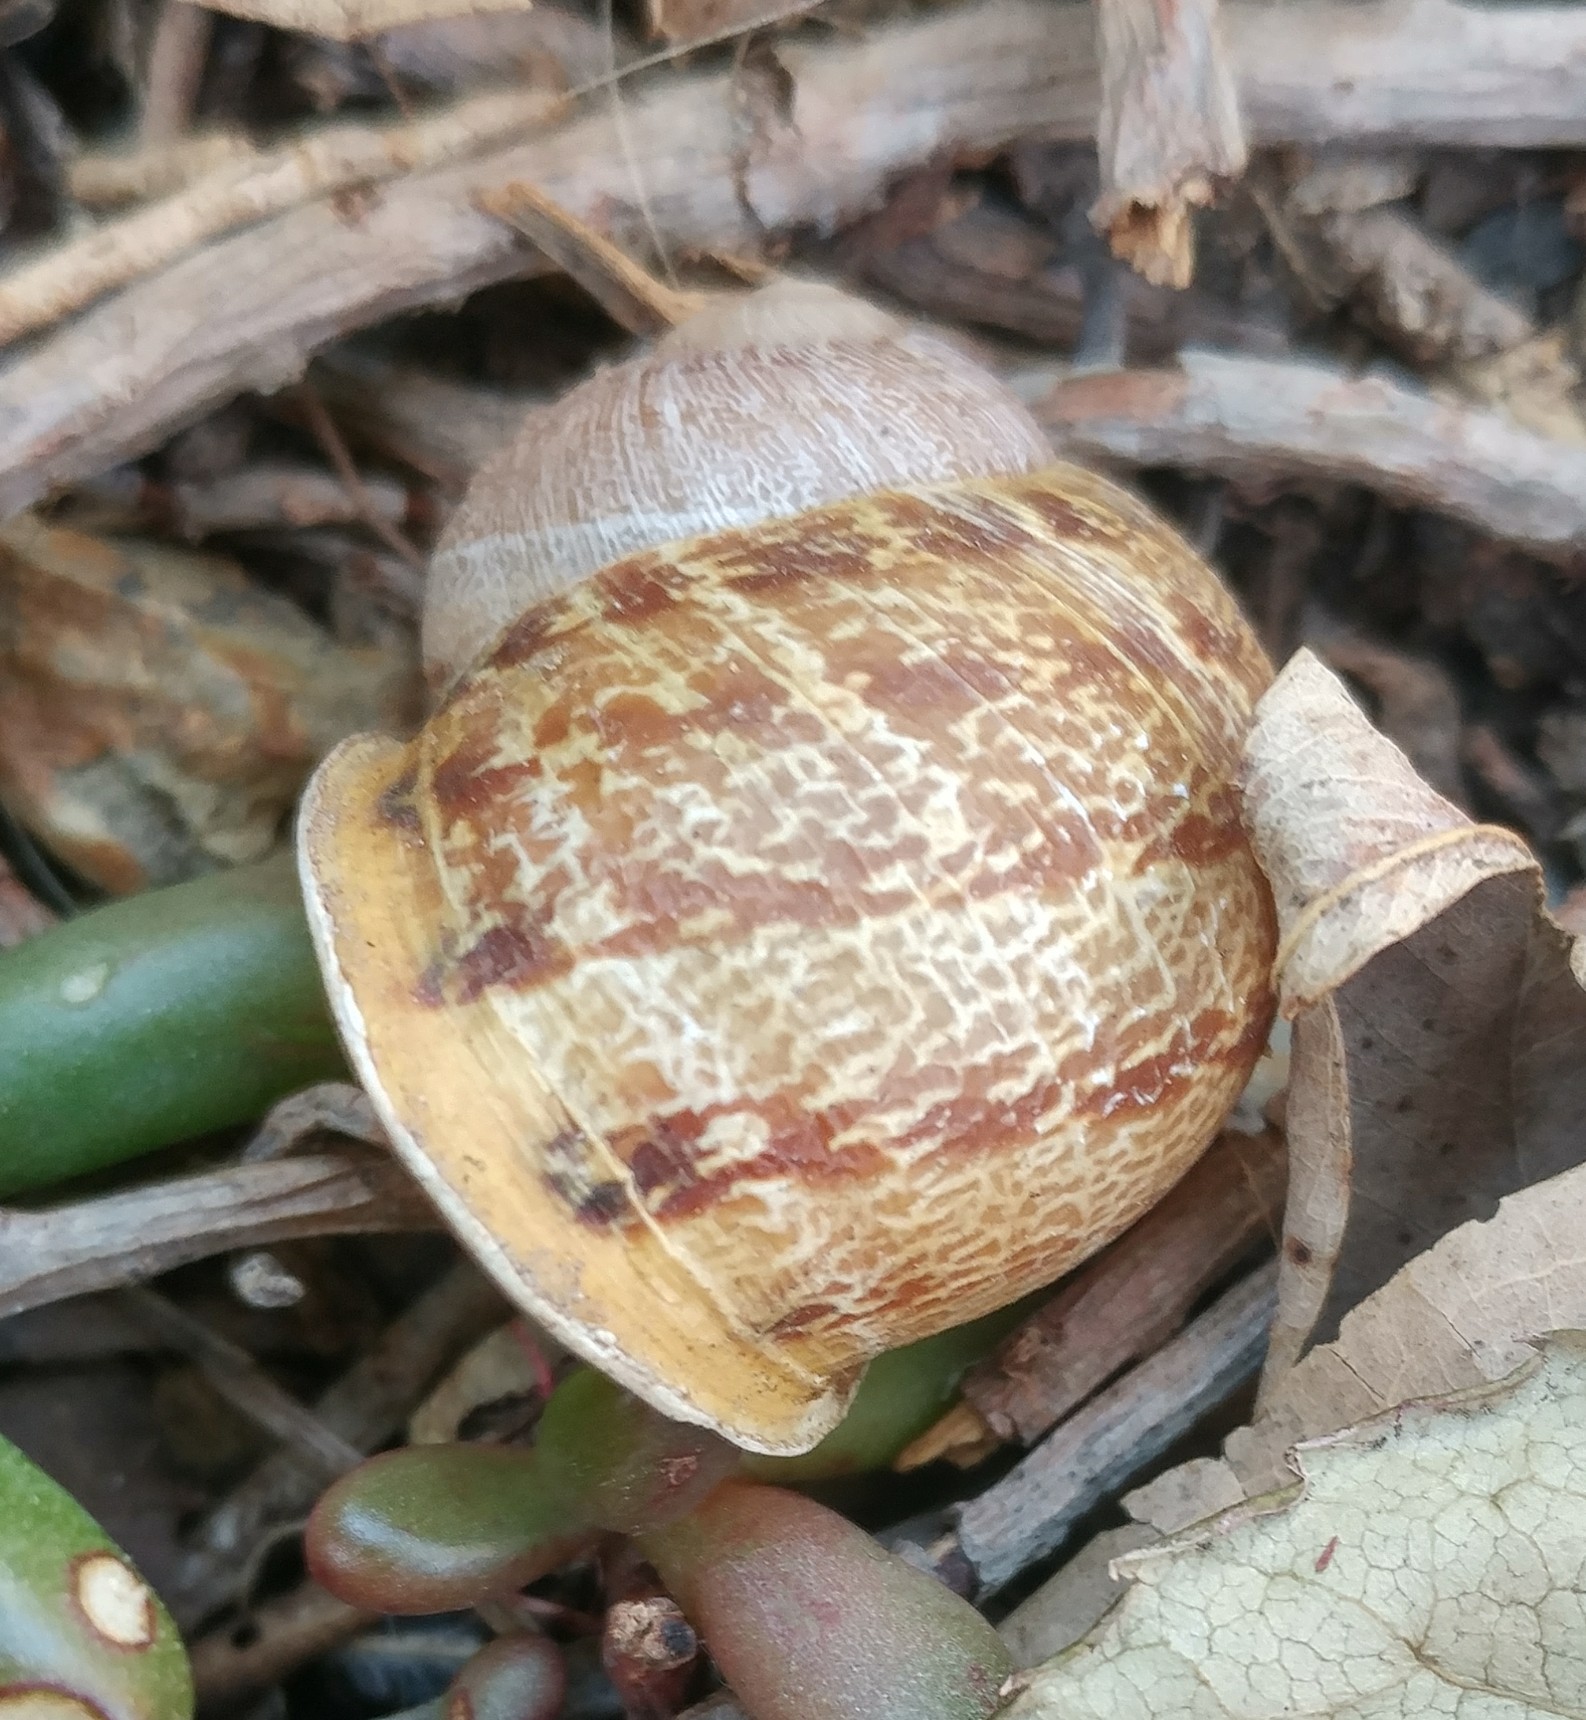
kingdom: Animalia
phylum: Mollusca
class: Gastropoda
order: Stylommatophora
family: Helicidae
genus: Cornu
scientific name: Cornu aspersum
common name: Brown garden snail
